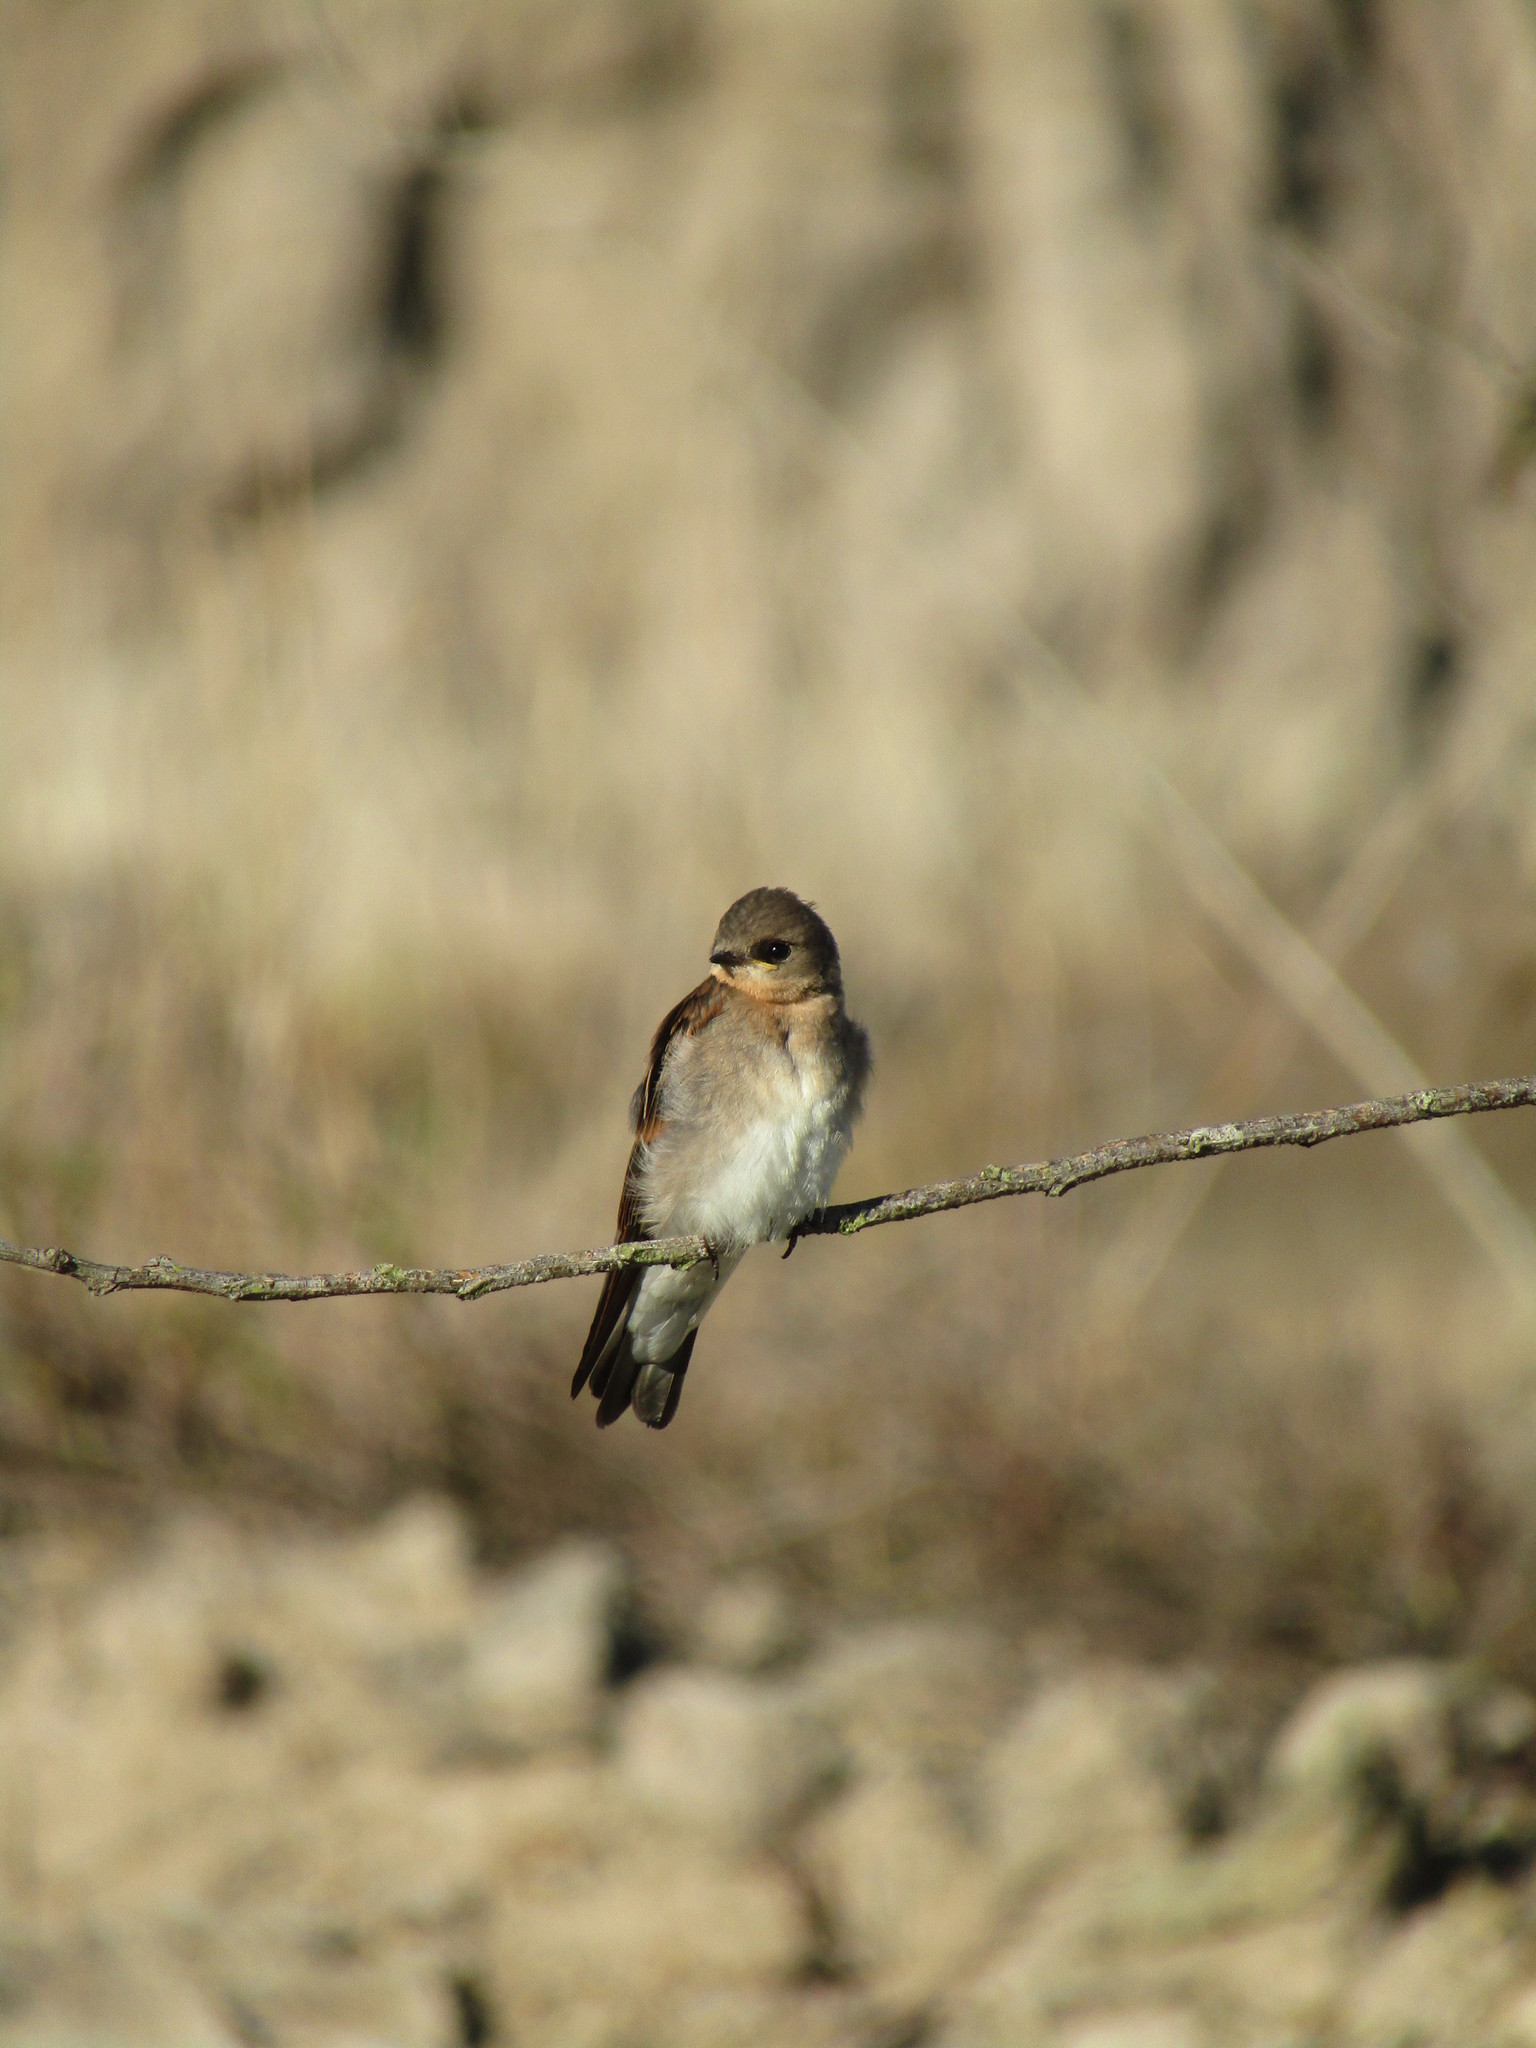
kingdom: Animalia
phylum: Chordata
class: Aves
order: Passeriformes
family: Hirundinidae
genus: Stelgidopteryx
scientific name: Stelgidopteryx serripennis
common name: Northern rough-winged swallow
